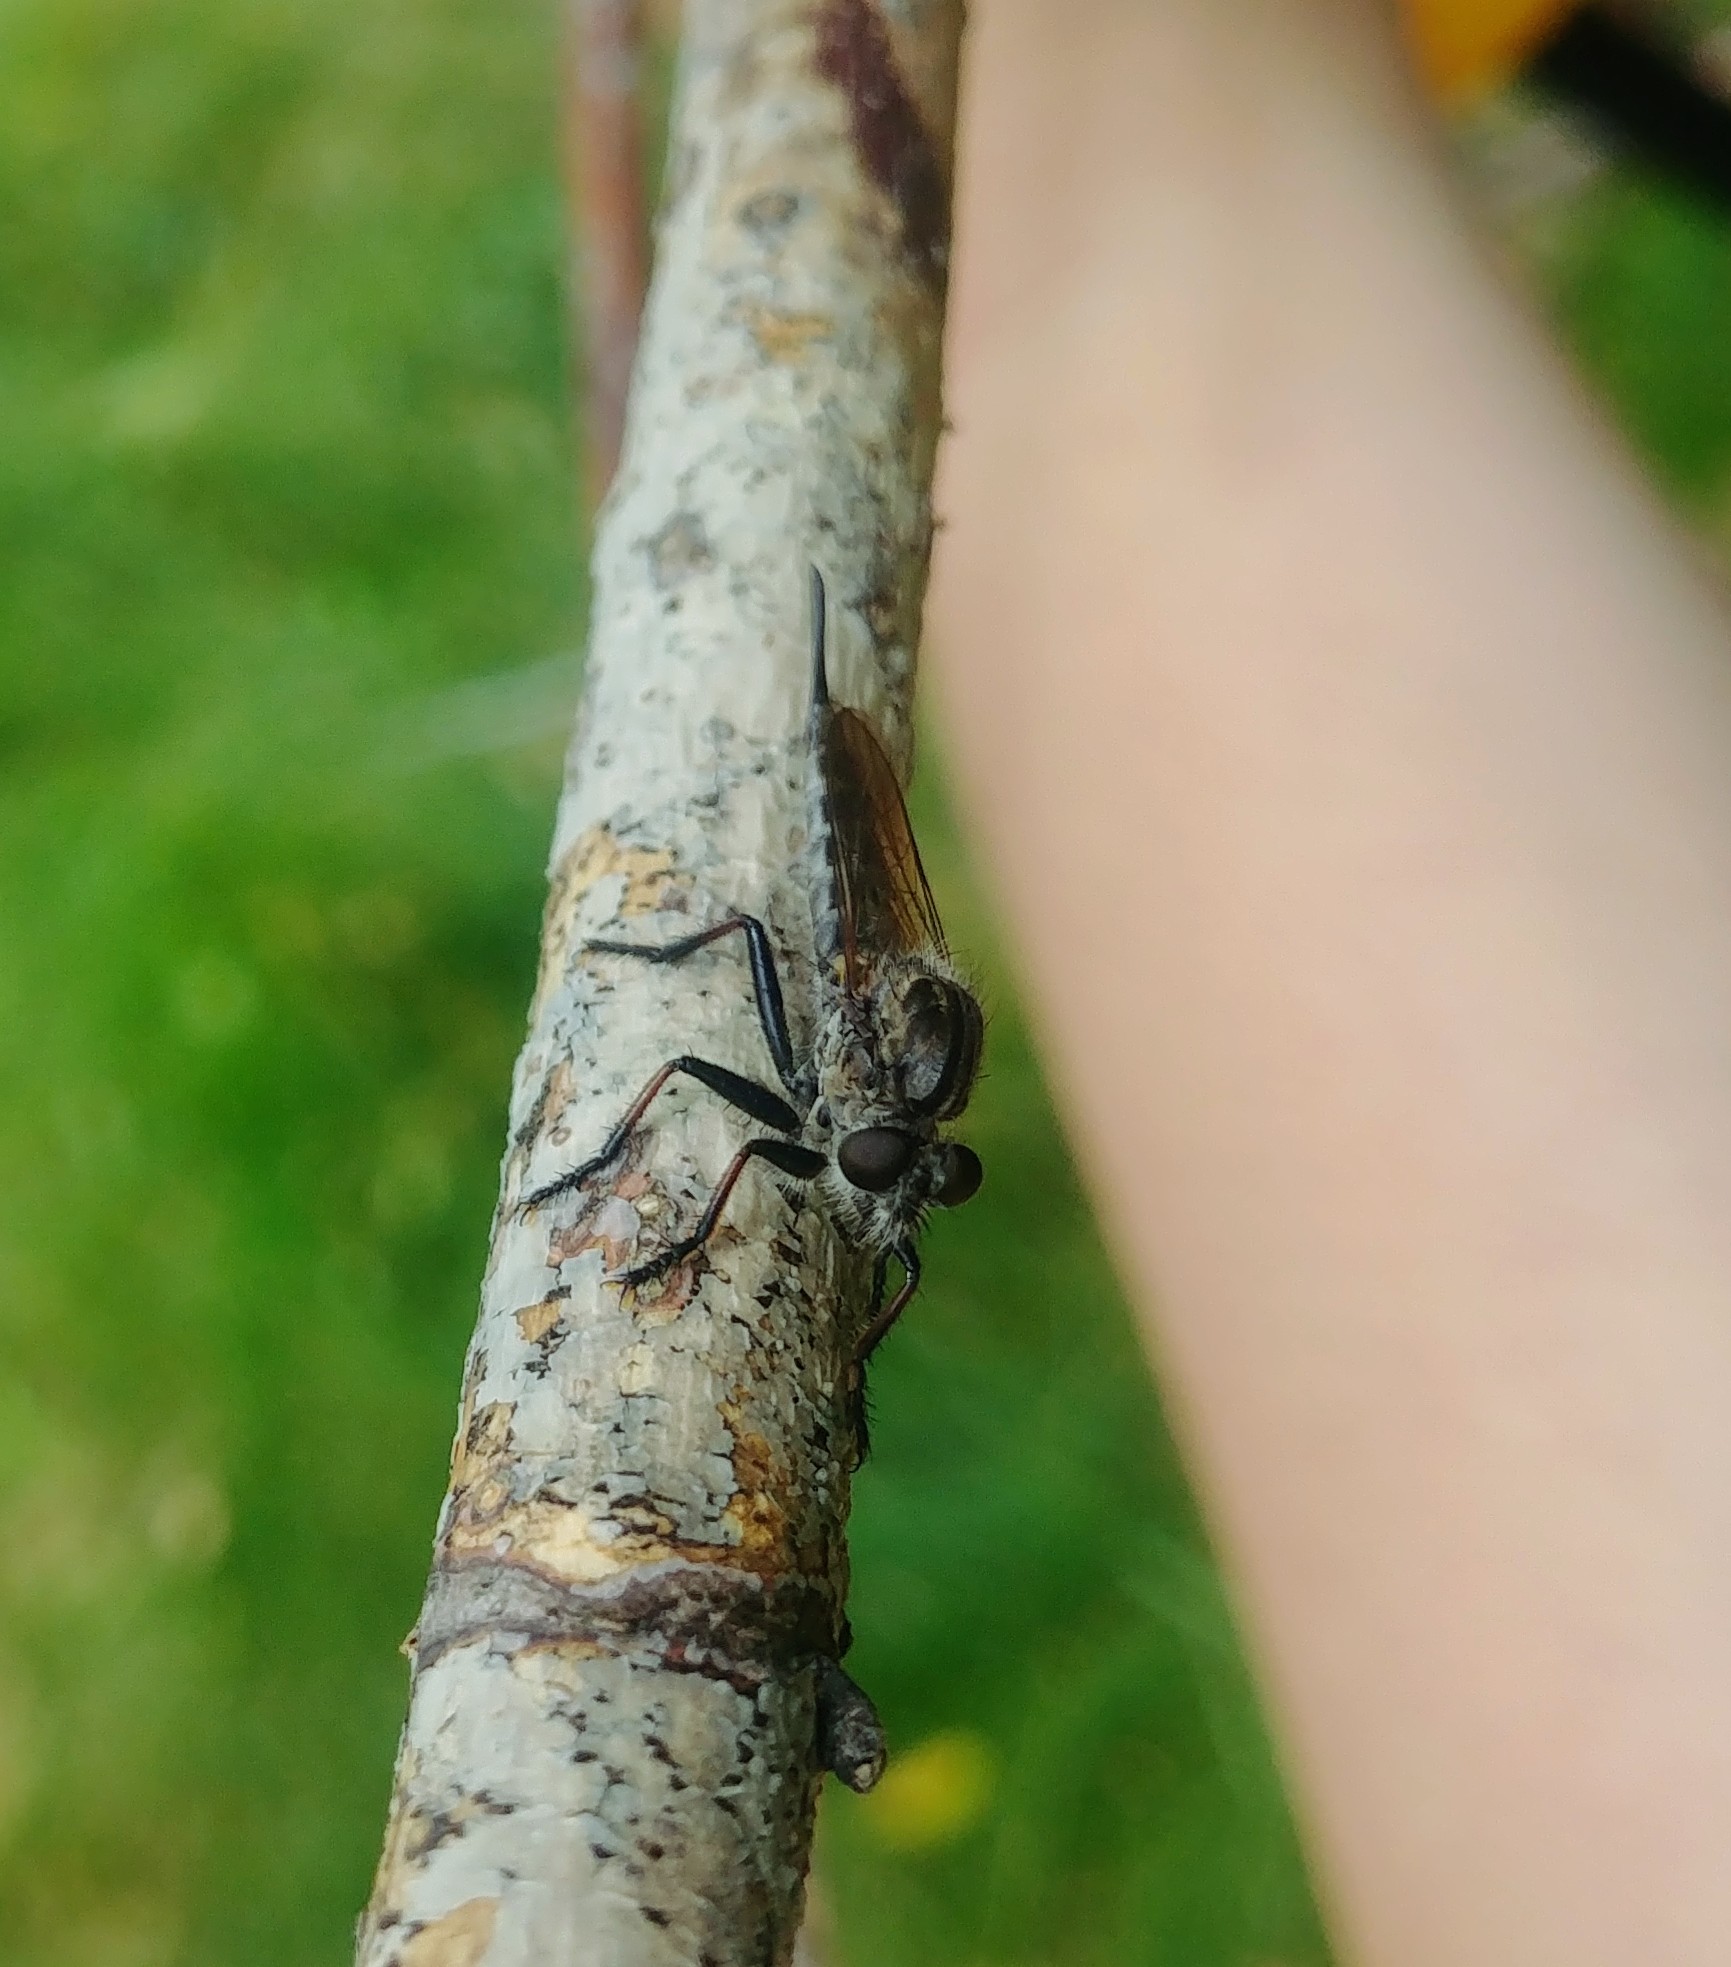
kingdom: Animalia
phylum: Arthropoda
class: Insecta
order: Diptera
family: Asilidae
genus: Efferia
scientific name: Efferia aestuans
